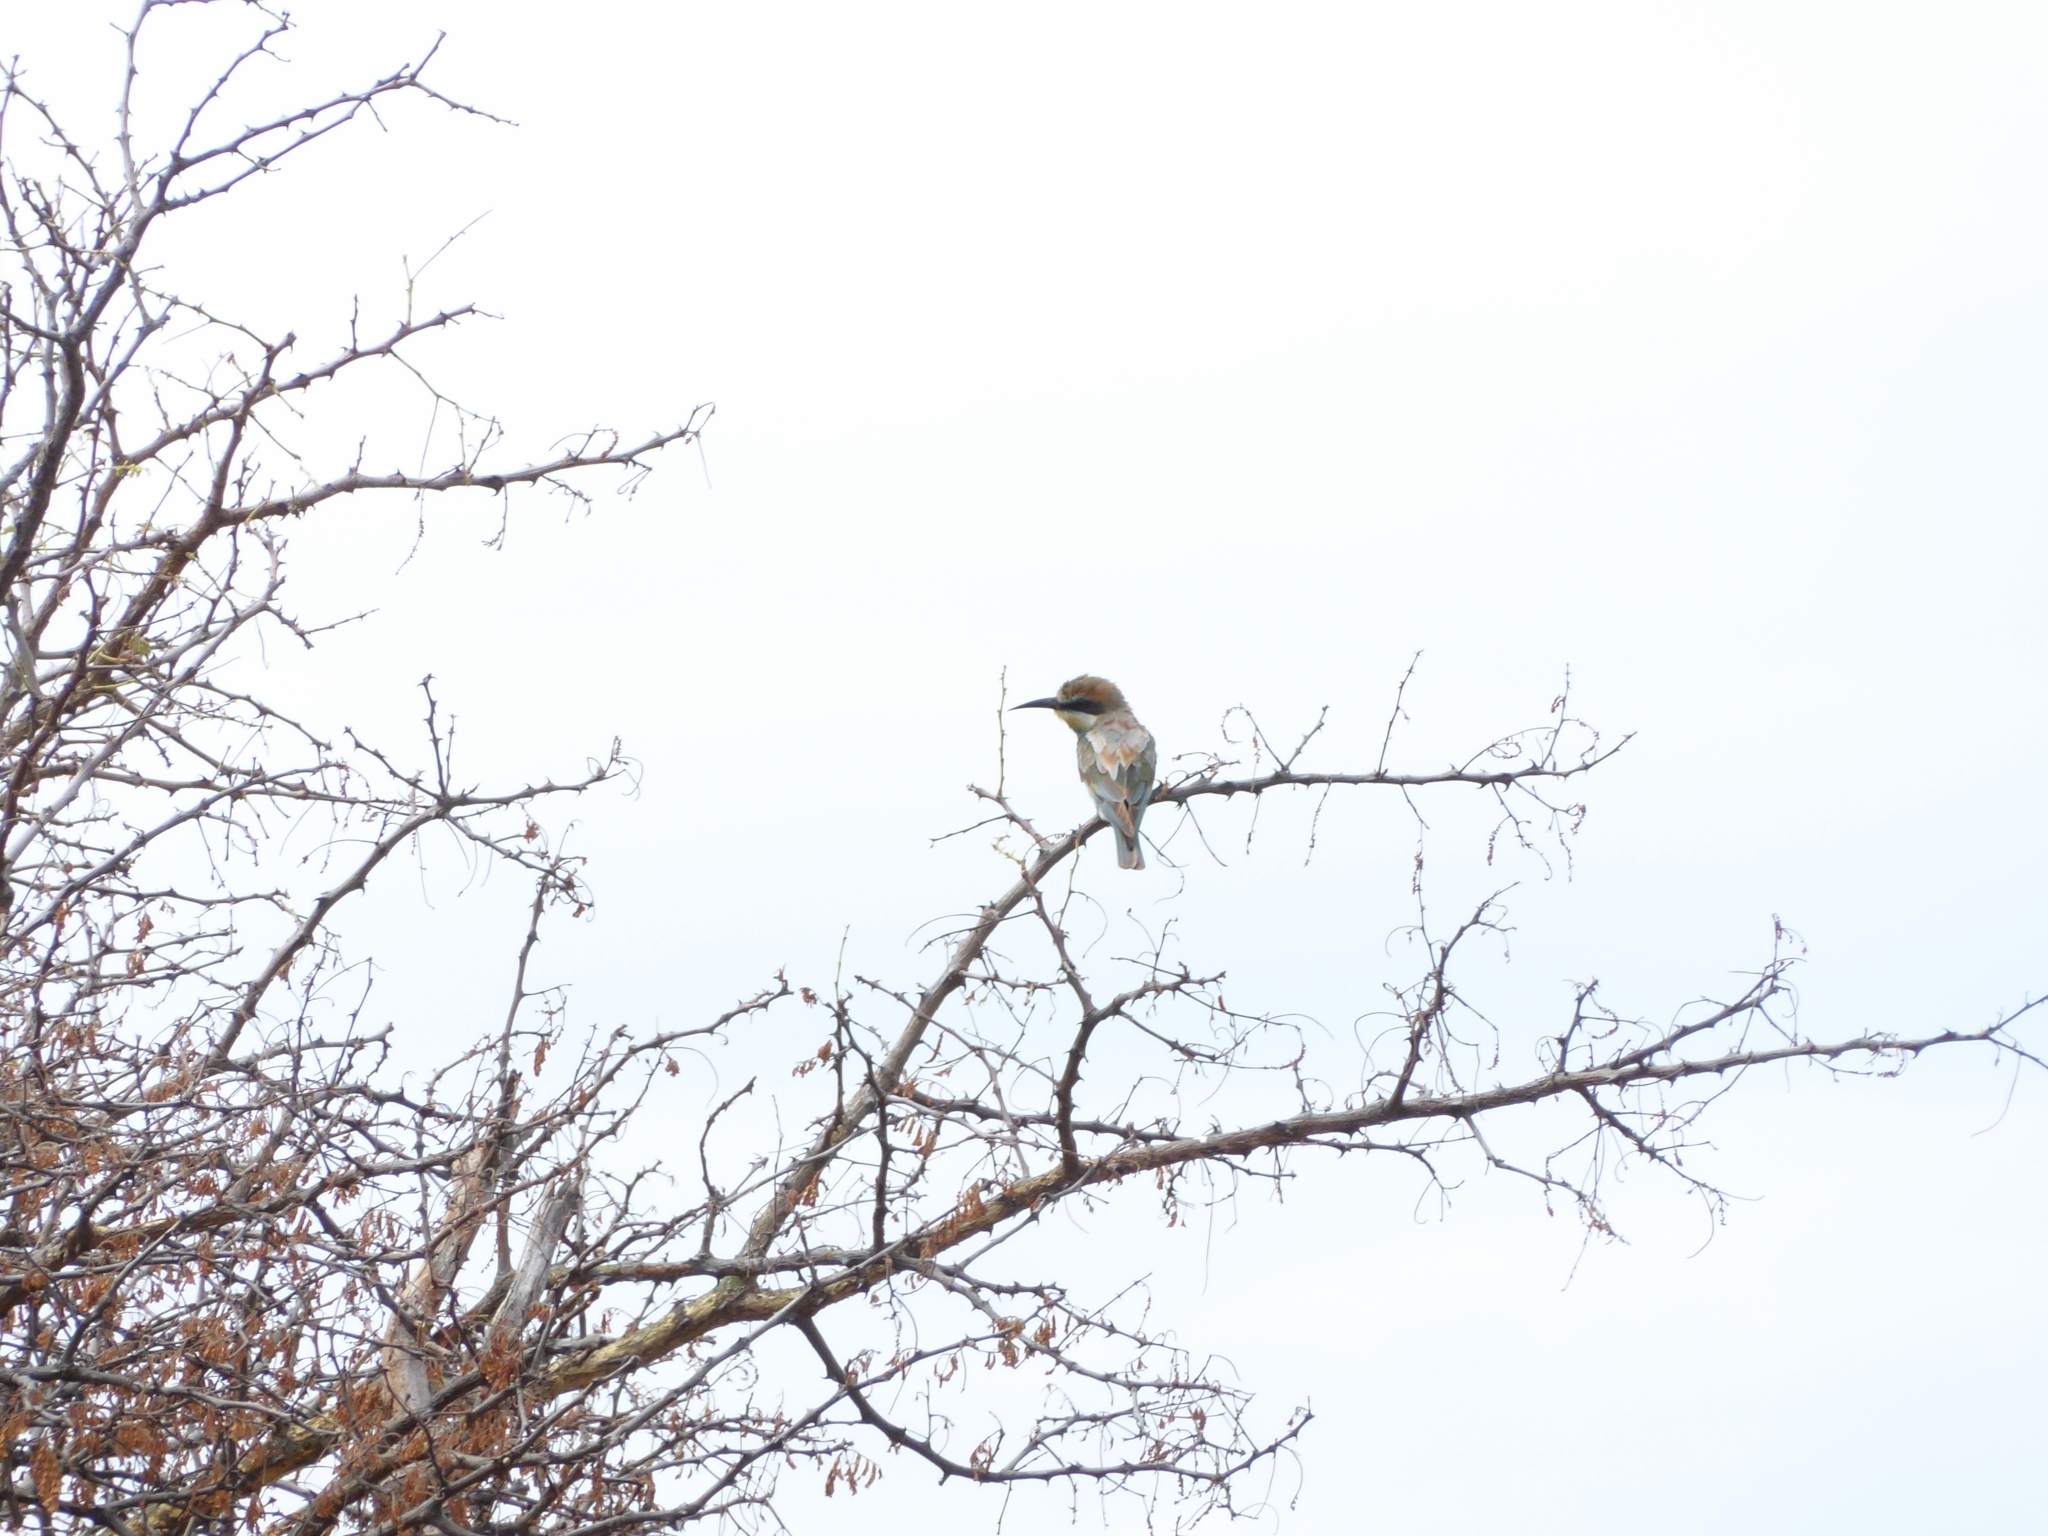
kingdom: Animalia
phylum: Chordata
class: Aves
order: Coraciiformes
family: Meropidae
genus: Merops
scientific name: Merops apiaster
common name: European bee-eater
